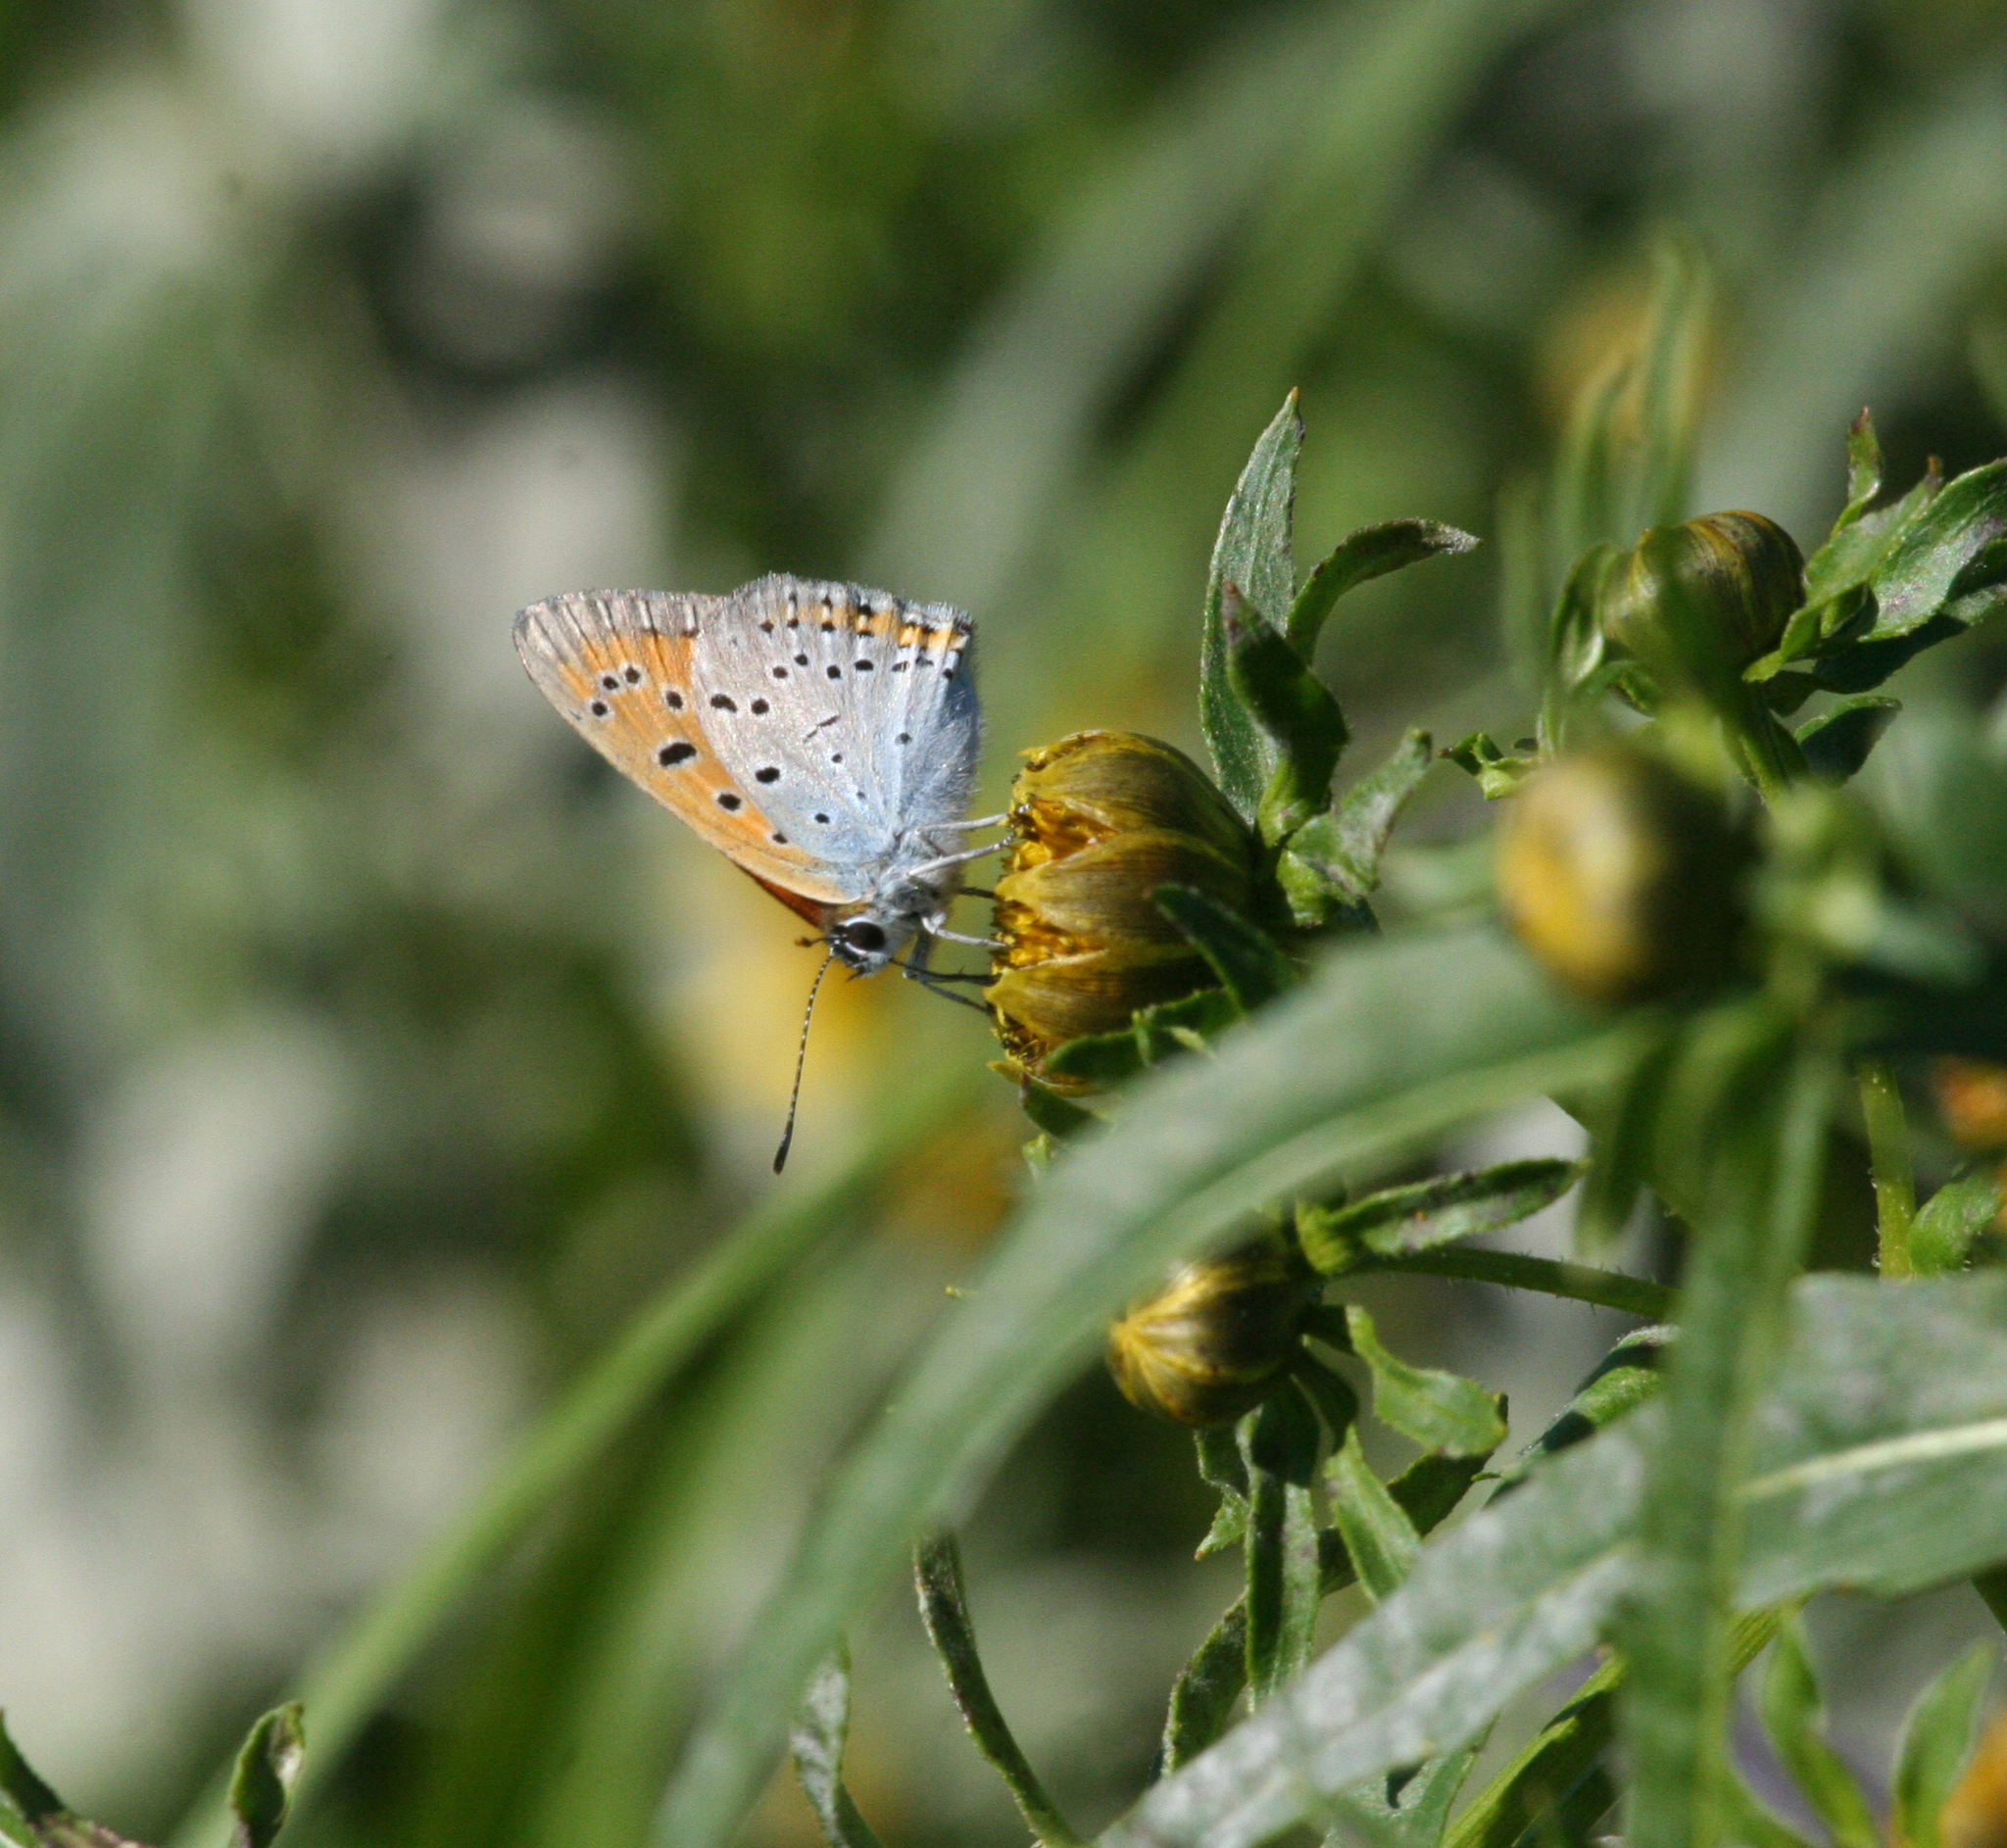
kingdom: Animalia
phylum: Arthropoda
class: Insecta
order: Lepidoptera
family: Lycaenidae
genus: Lycaena
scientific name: Lycaena dispar
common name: Large copper
